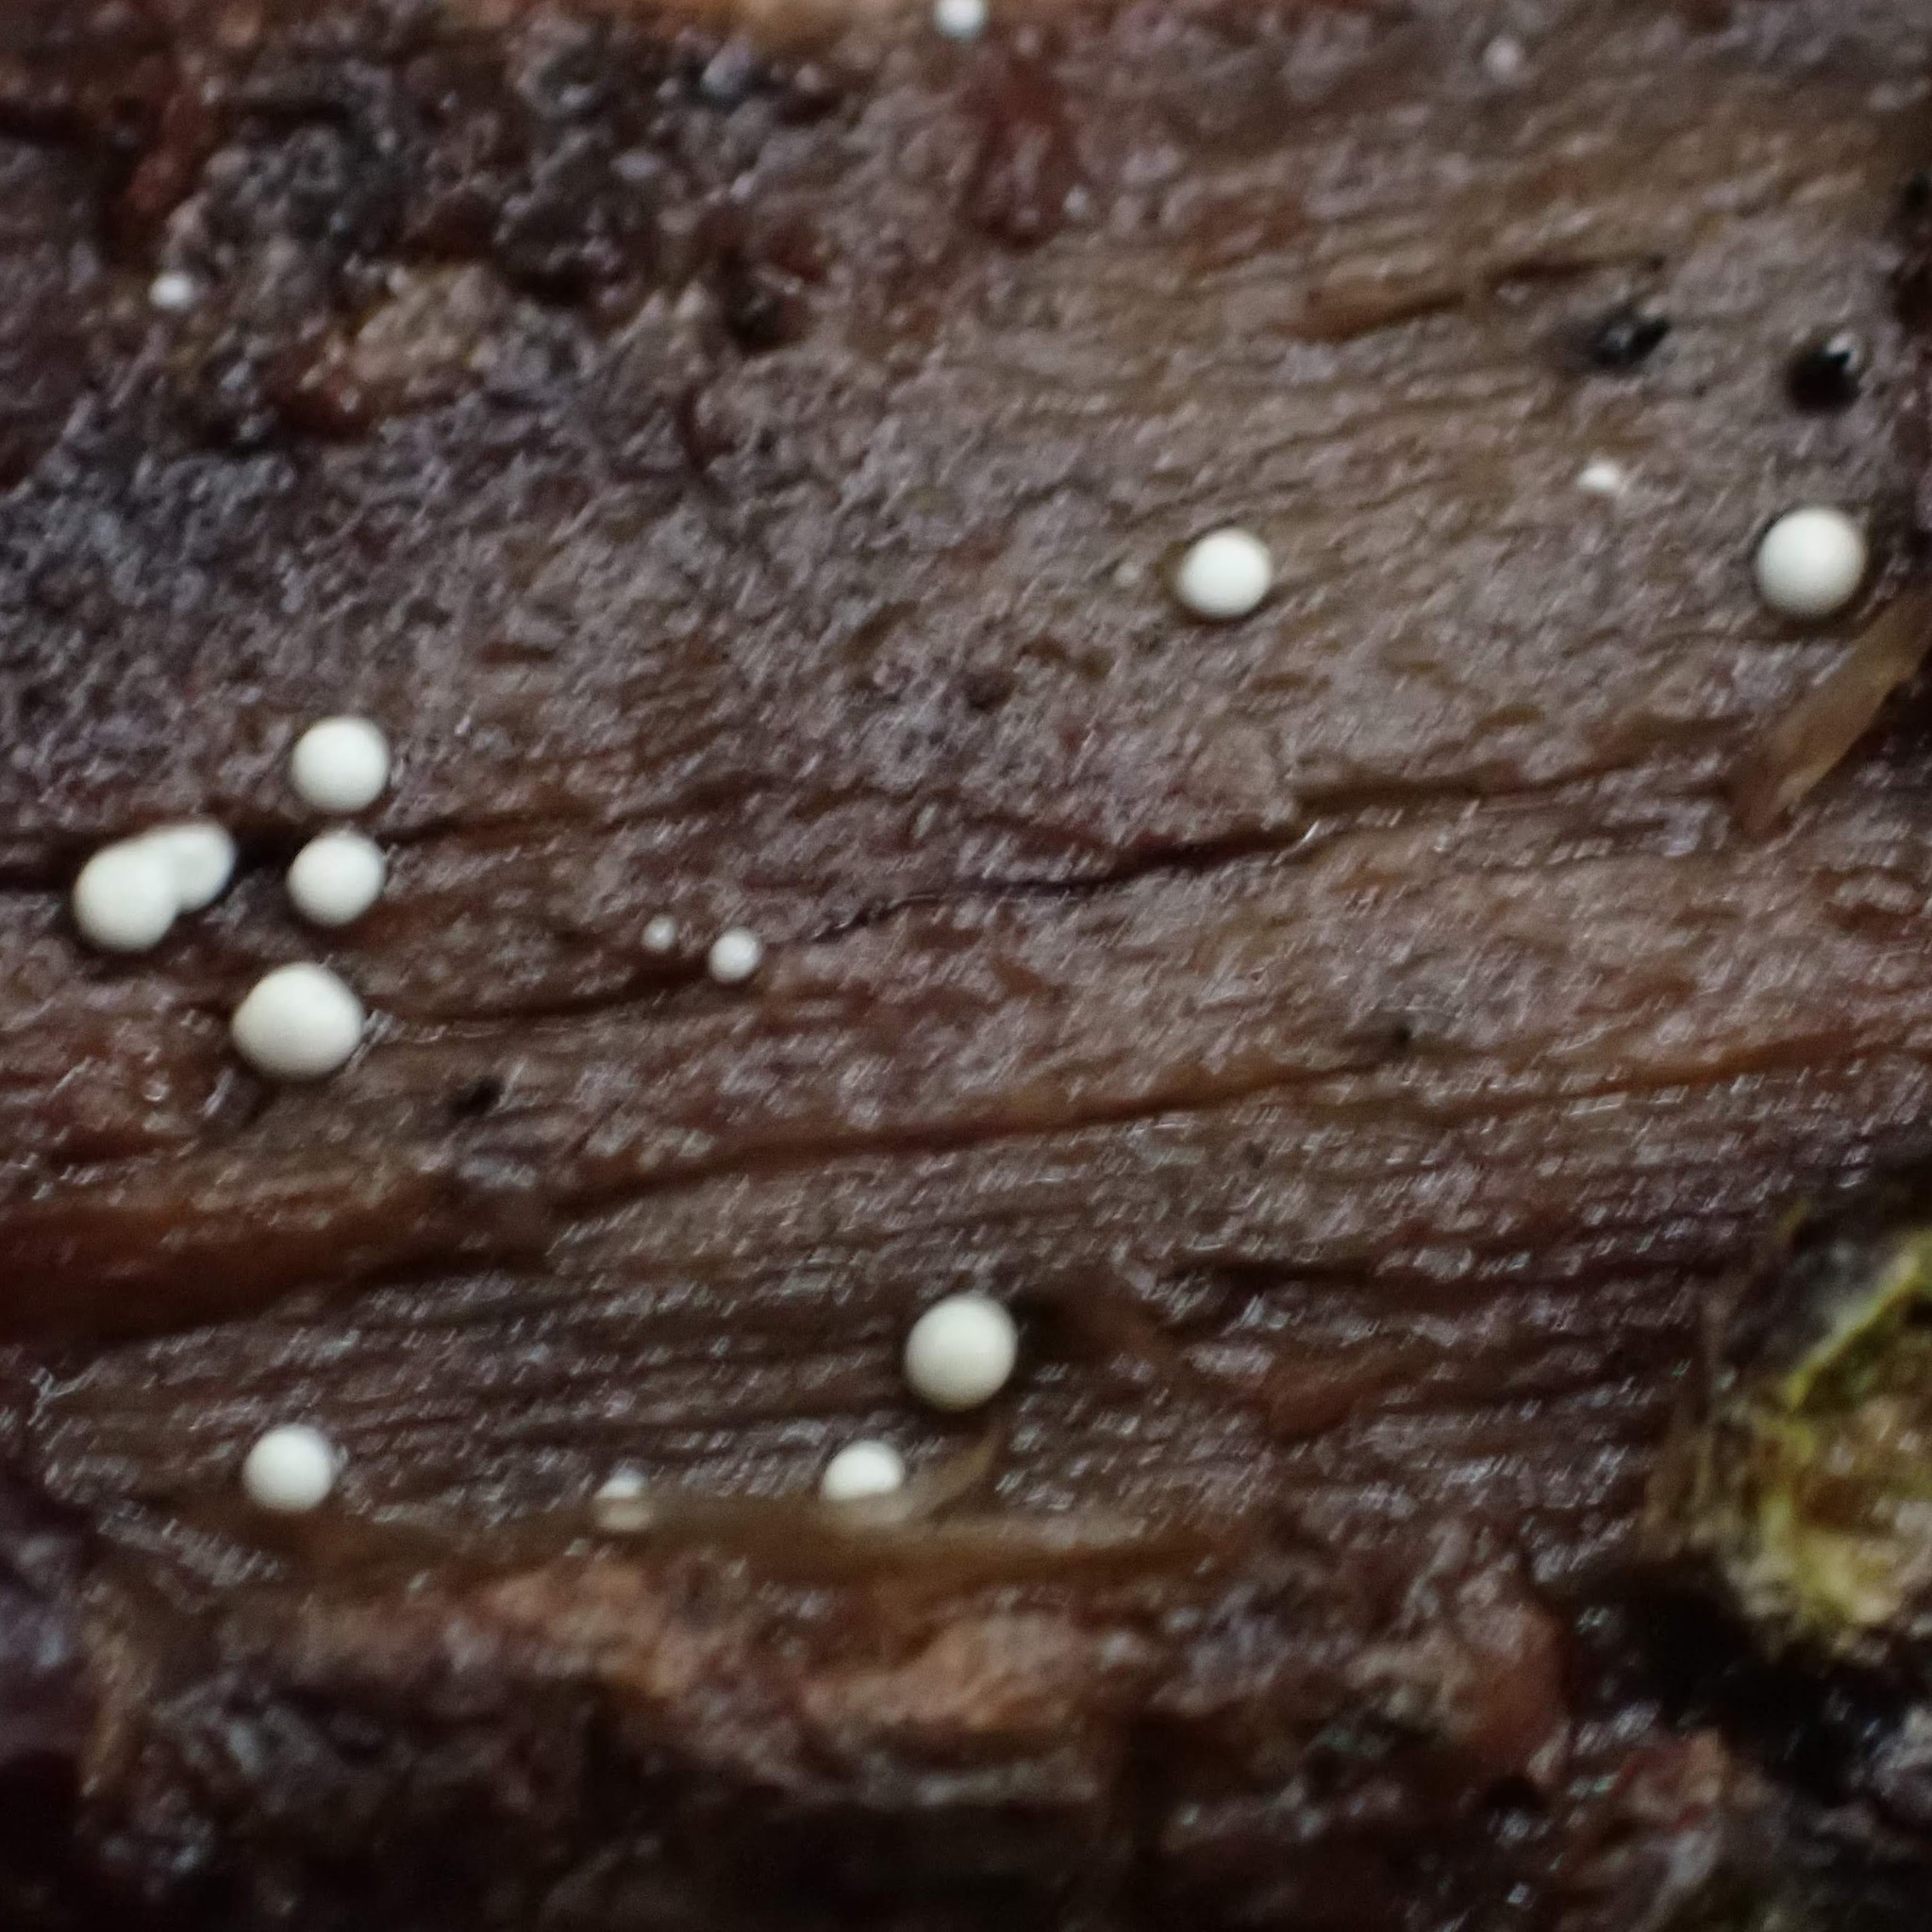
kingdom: Fungi
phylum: Basidiomycota
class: Atractiellomycetes
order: Atractiellales
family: Phleogenaceae
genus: Helicogloea
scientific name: Helicogloea compressa
